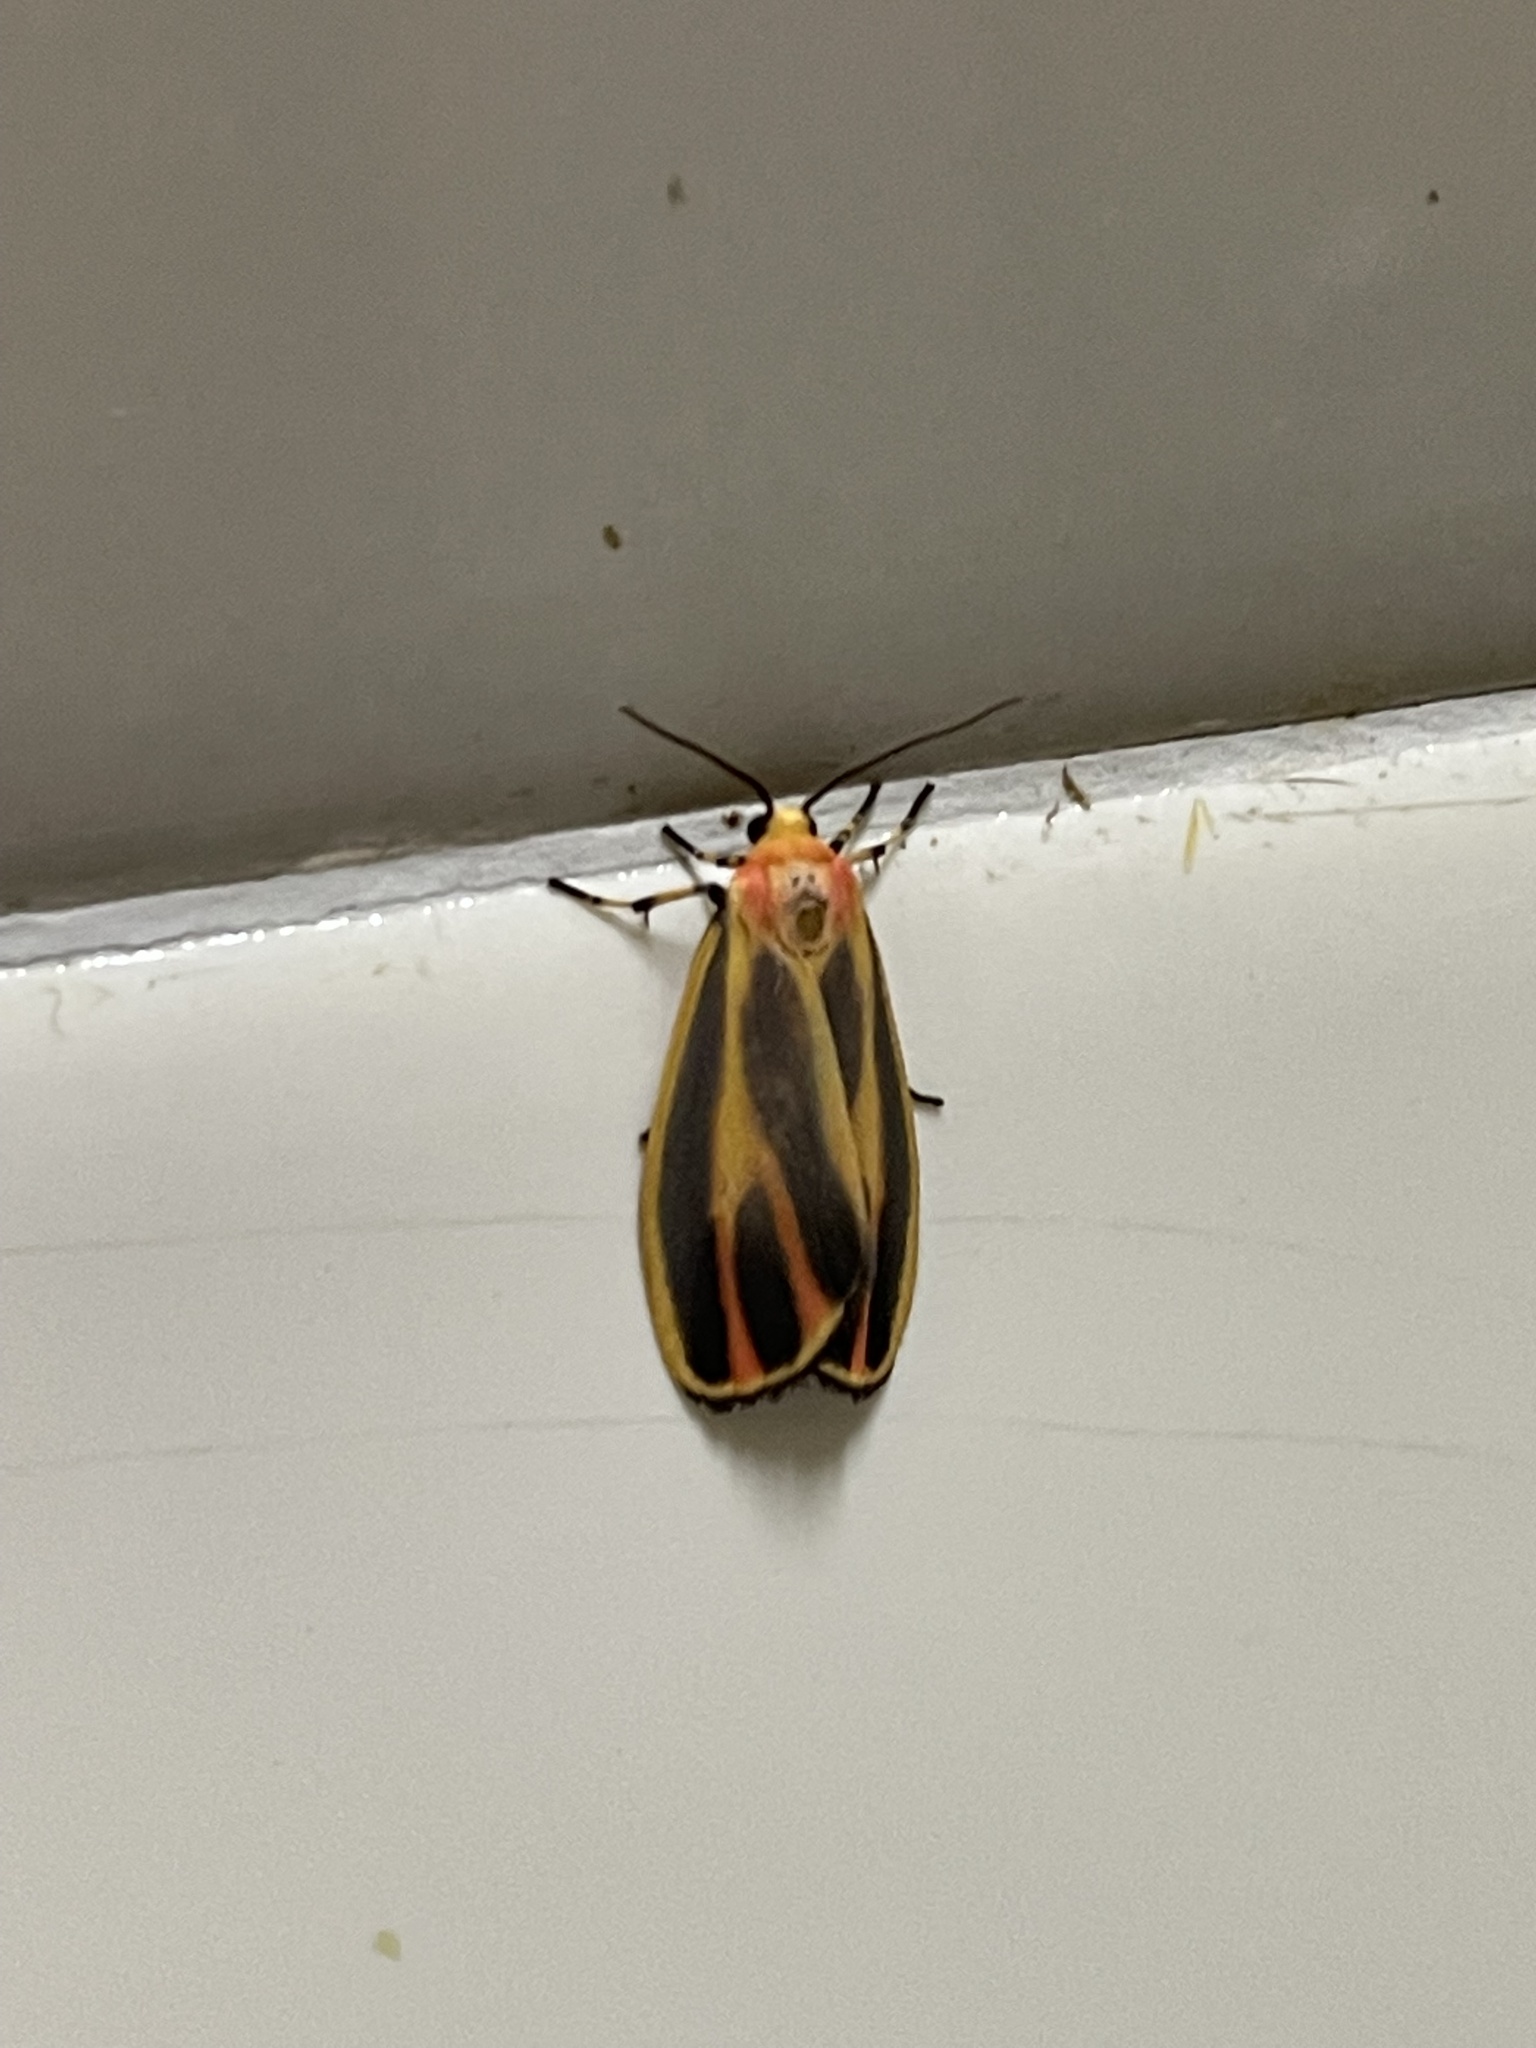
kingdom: Animalia
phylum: Arthropoda
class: Insecta
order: Lepidoptera
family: Erebidae
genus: Hypoprepia
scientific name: Hypoprepia fucosa
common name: Painted lichen moth
